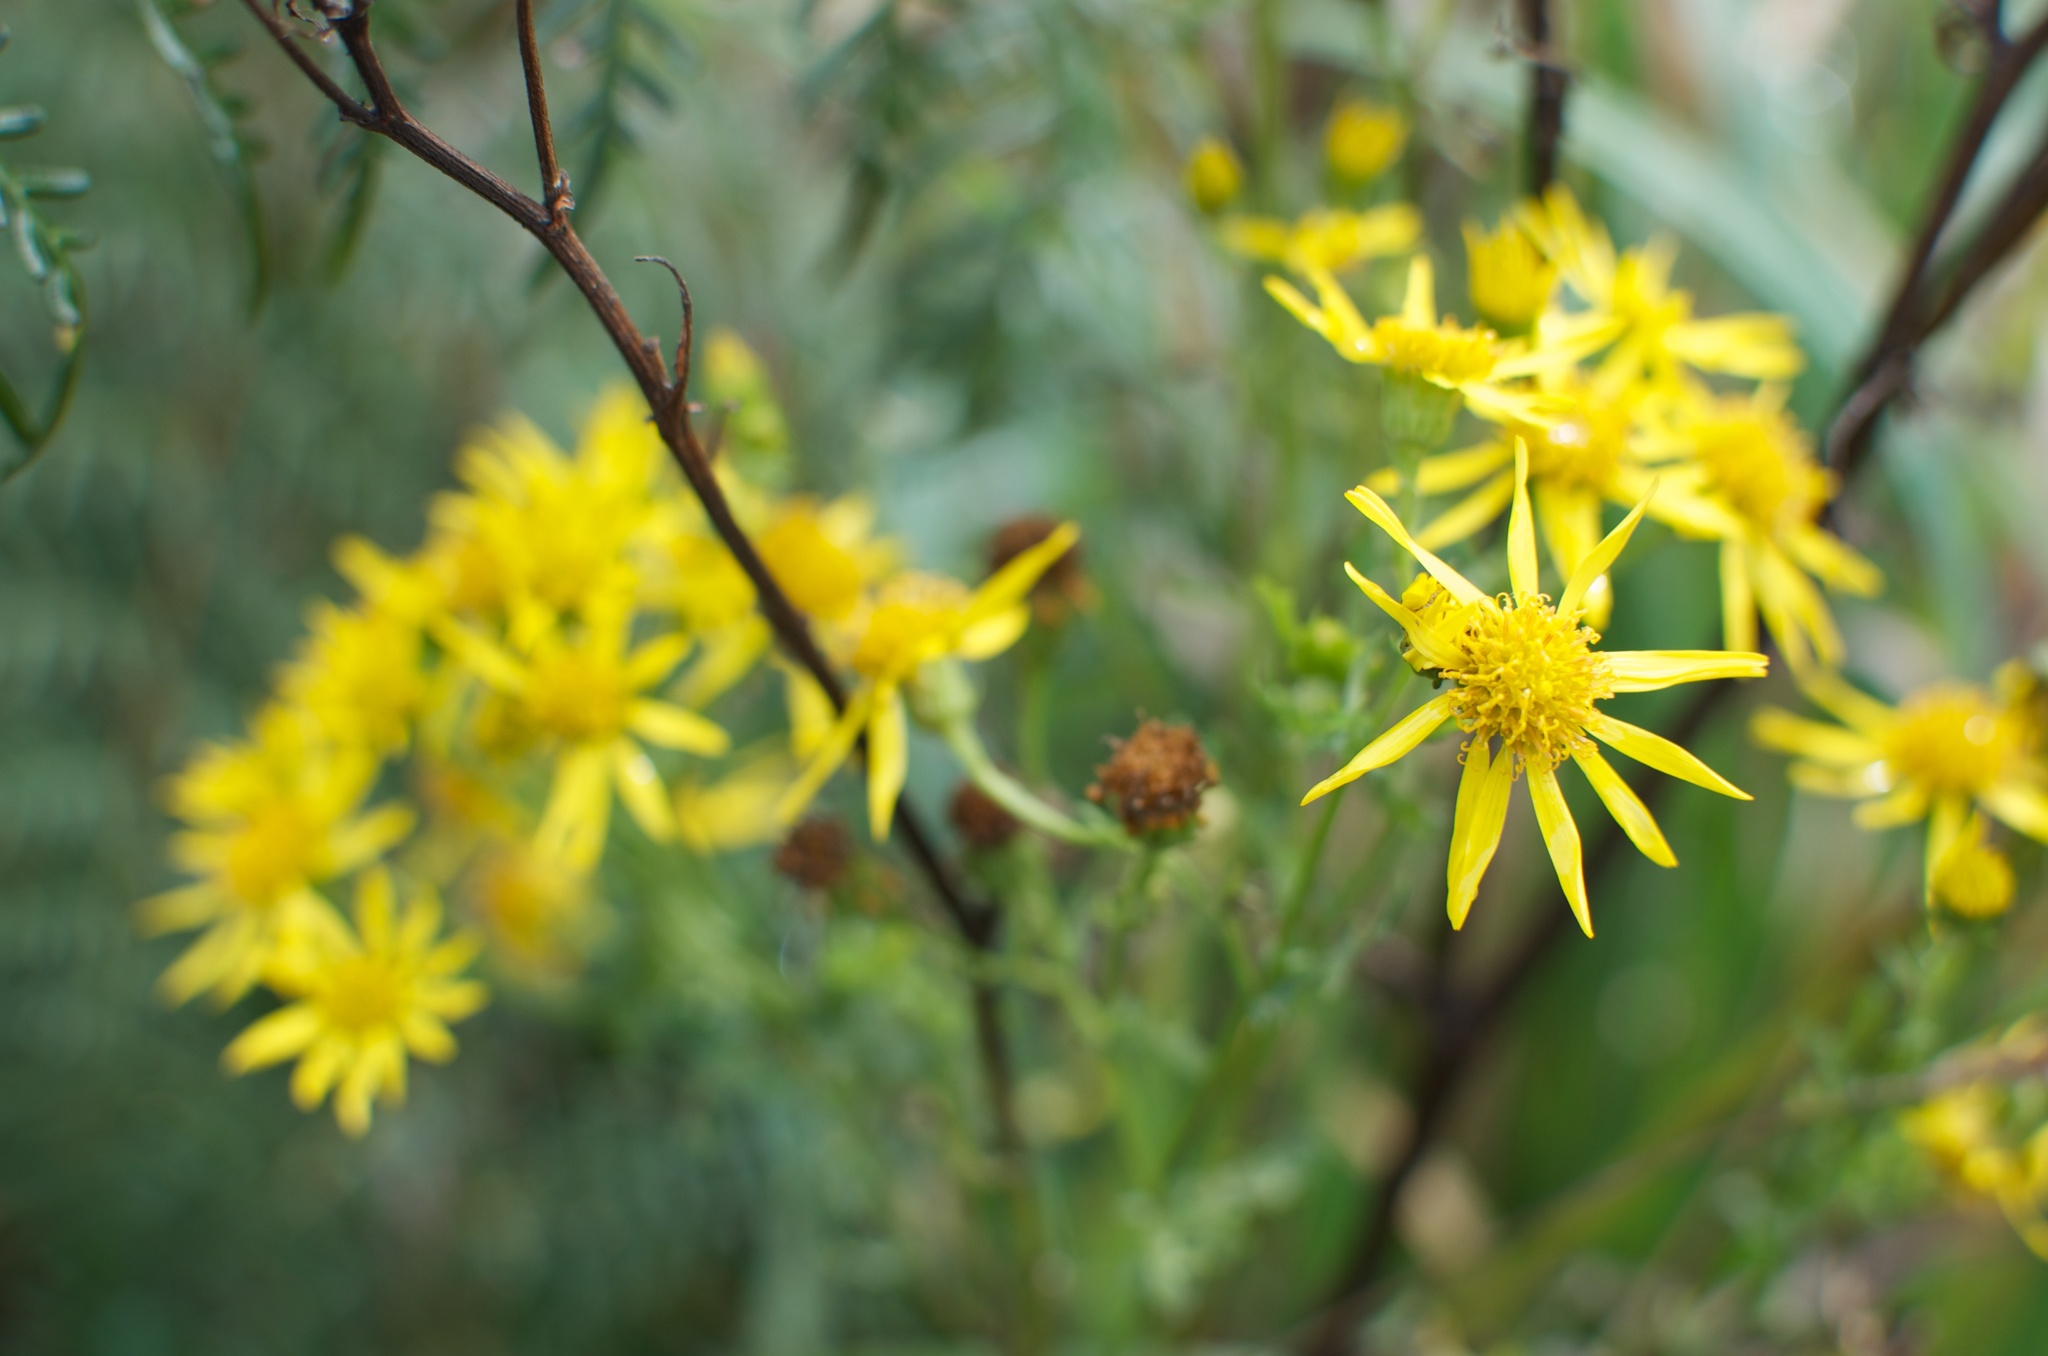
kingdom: Plantae
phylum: Tracheophyta
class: Magnoliopsida
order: Asterales
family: Asteraceae
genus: Jacobaea
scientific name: Jacobaea vulgaris
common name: Stinking willie
